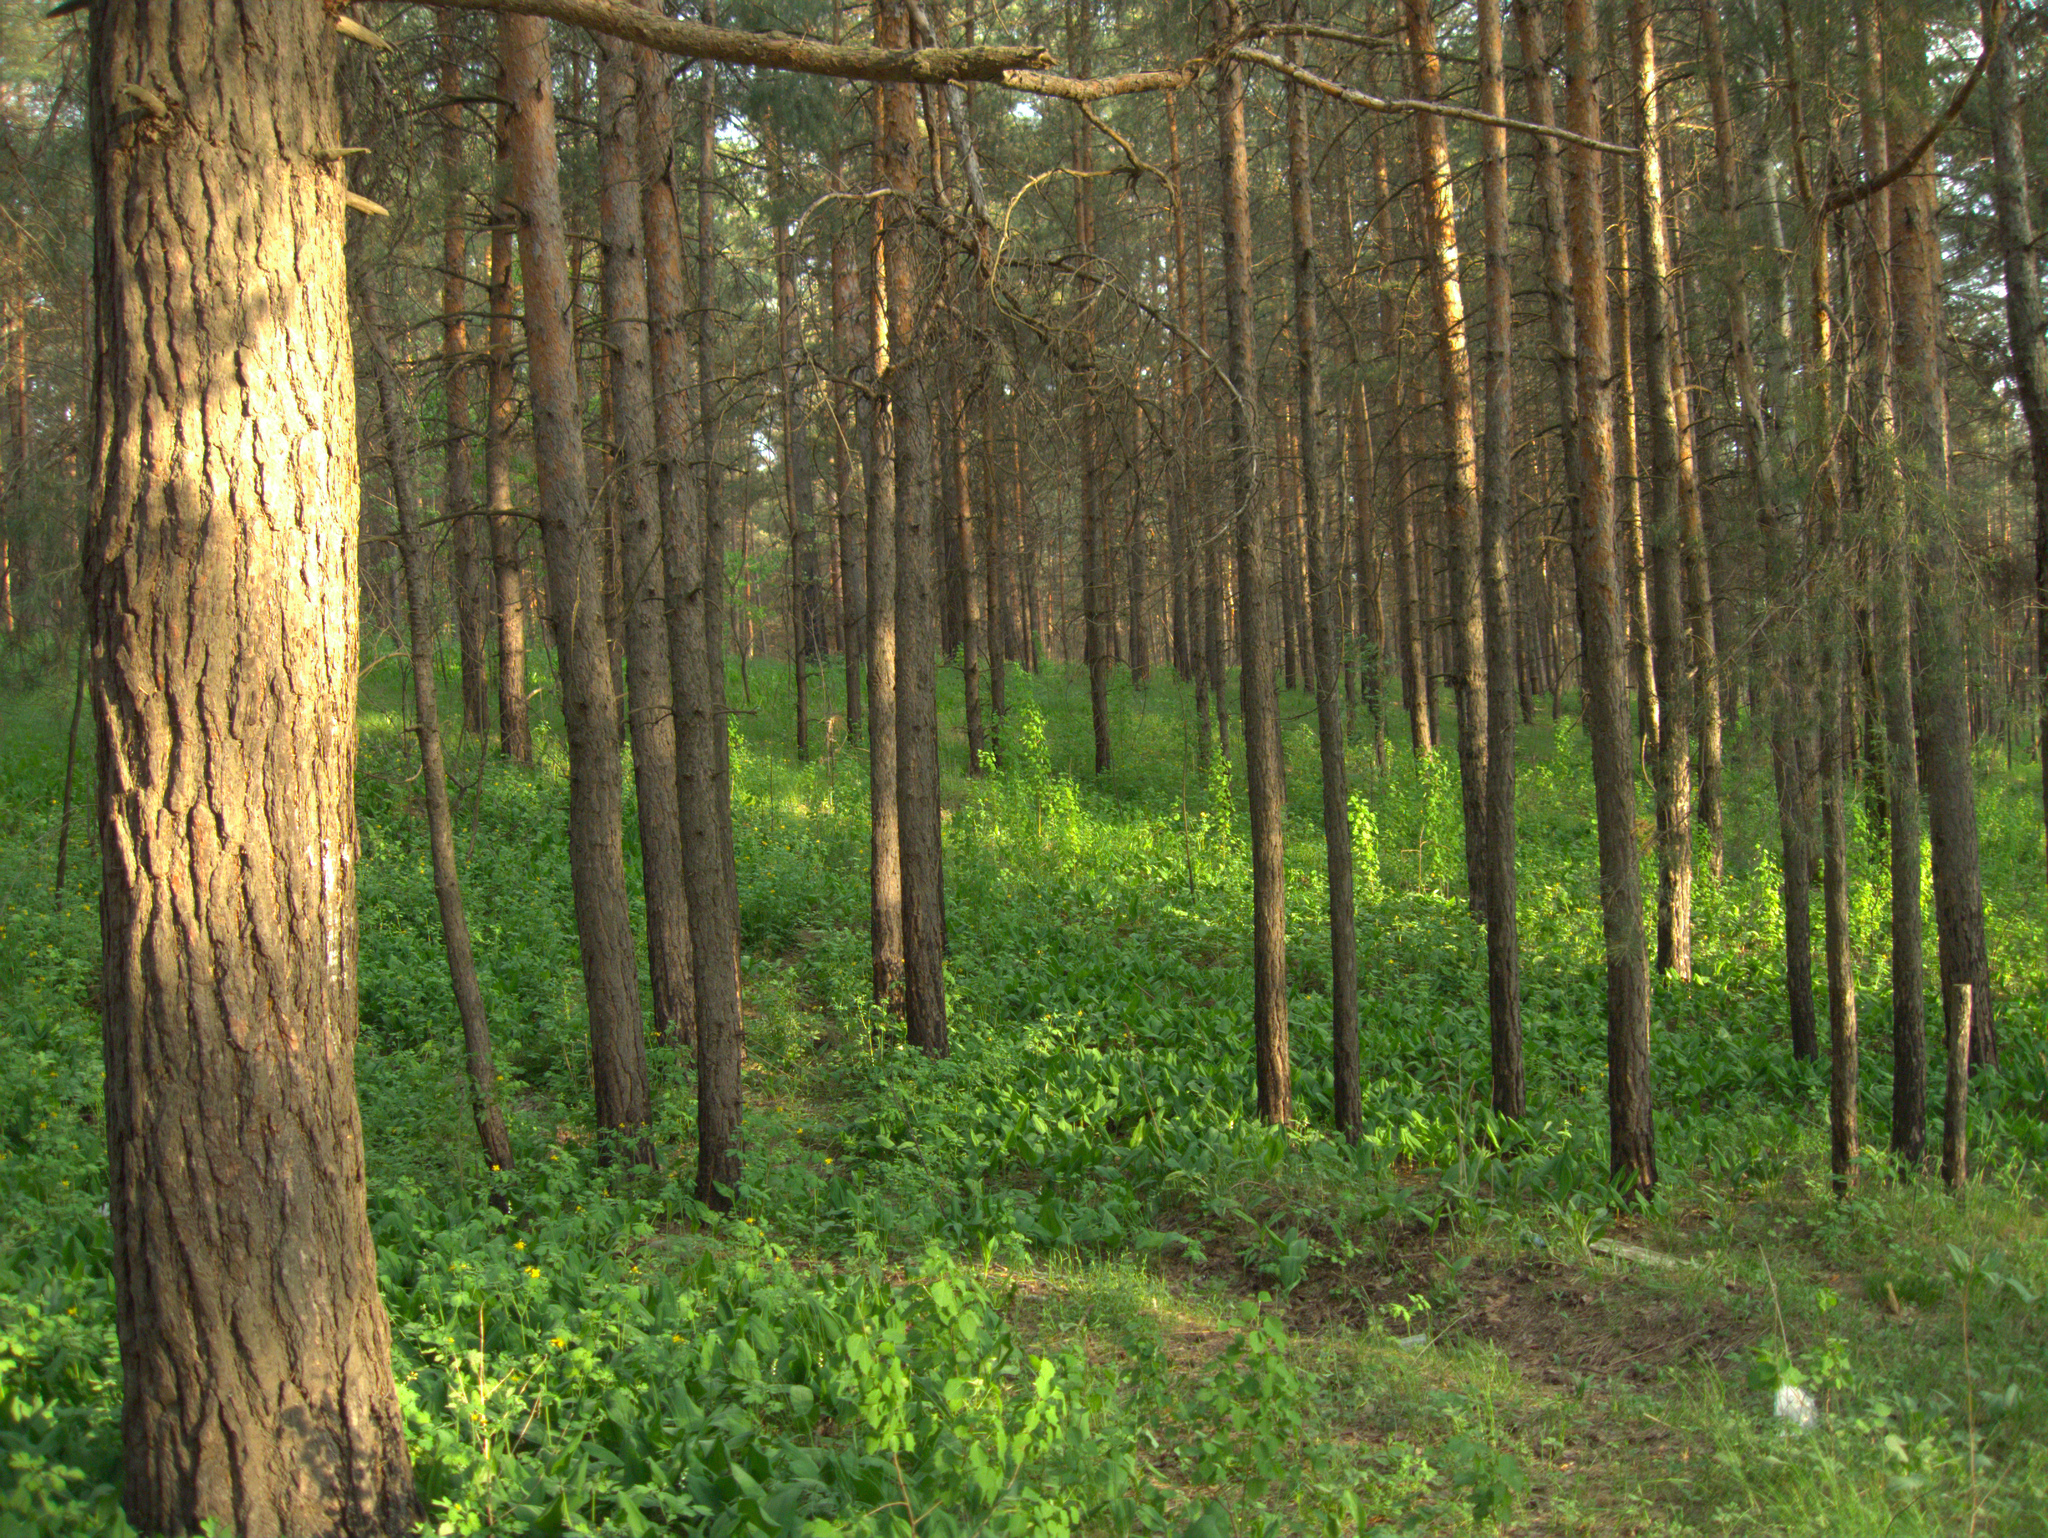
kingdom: Plantae
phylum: Tracheophyta
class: Liliopsida
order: Asparagales
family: Asparagaceae
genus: Convallaria
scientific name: Convallaria majalis
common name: Lily-of-the-valley
